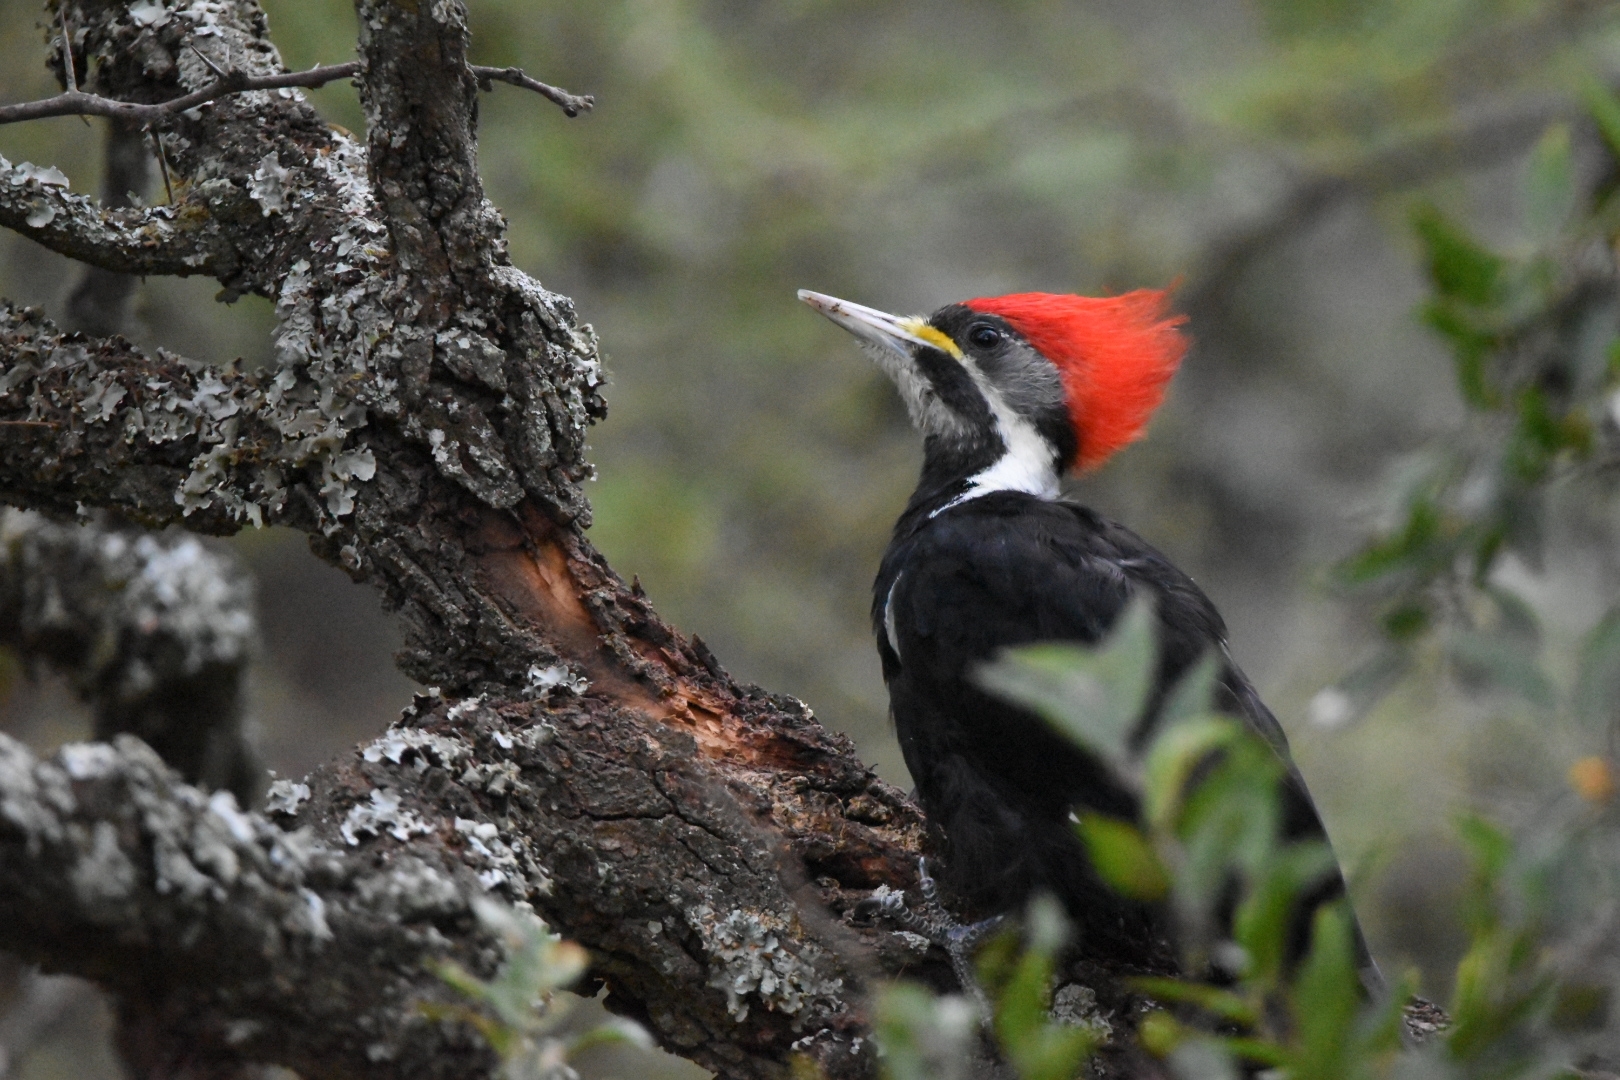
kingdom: Animalia
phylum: Chordata
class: Aves
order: Piciformes
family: Picidae
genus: Dryocopus
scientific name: Dryocopus schulzii
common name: Black-bodied woodpecker
